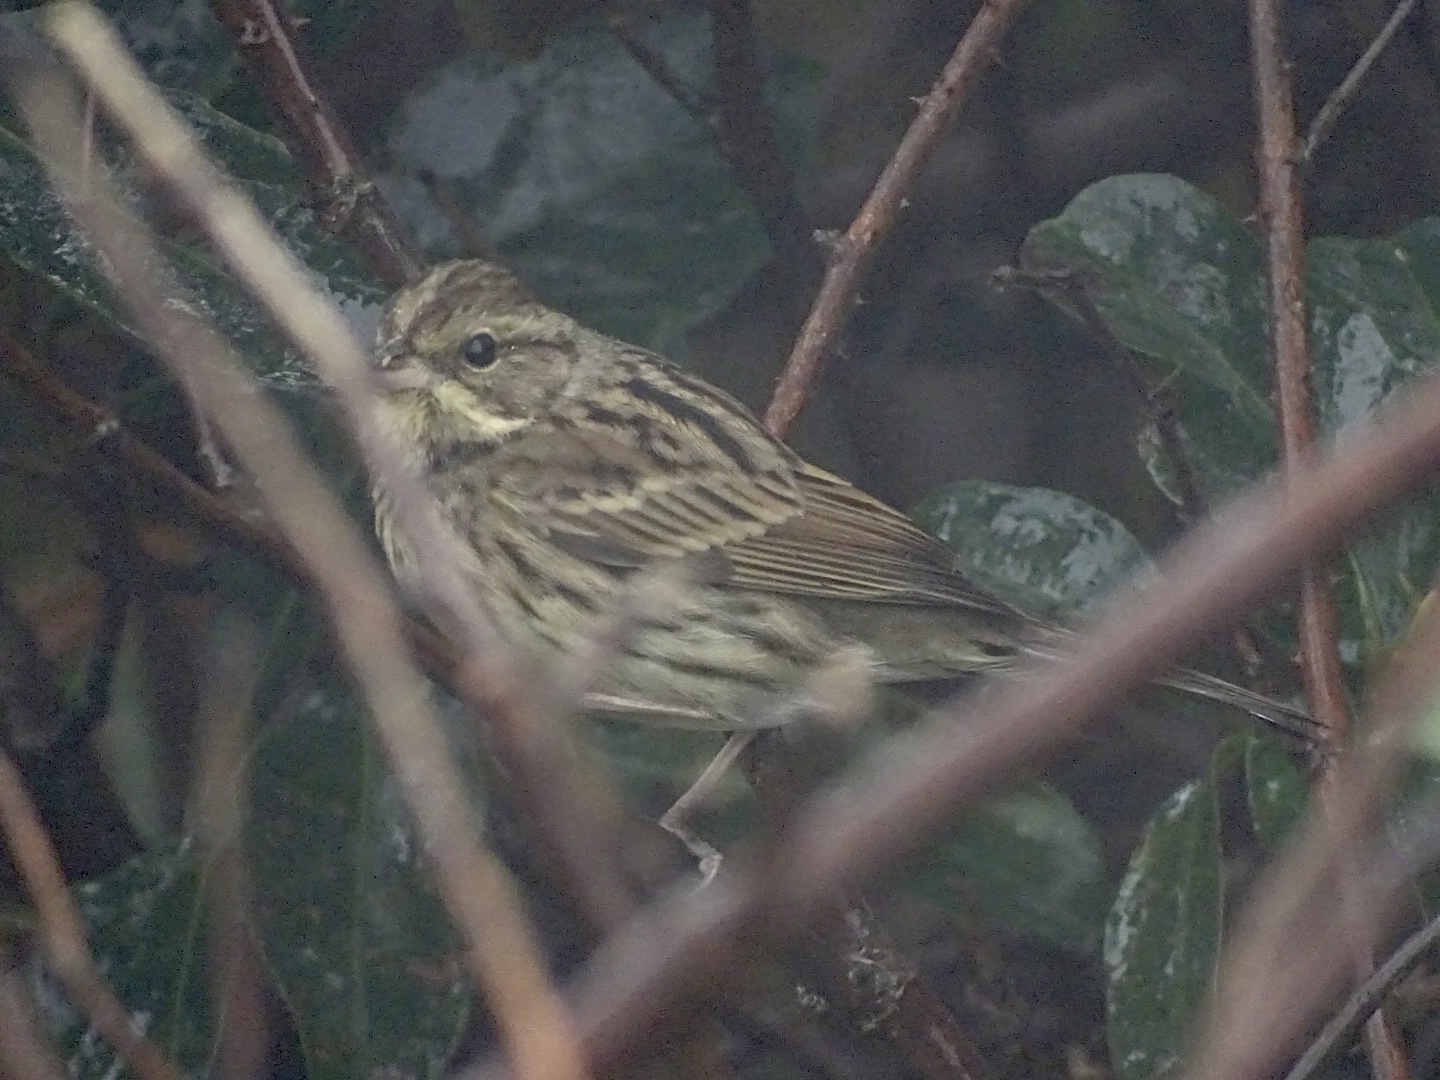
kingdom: Animalia
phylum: Chordata
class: Aves
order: Passeriformes
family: Emberizidae
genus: Emberiza
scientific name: Emberiza spodocephala
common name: Black-faced bunting
